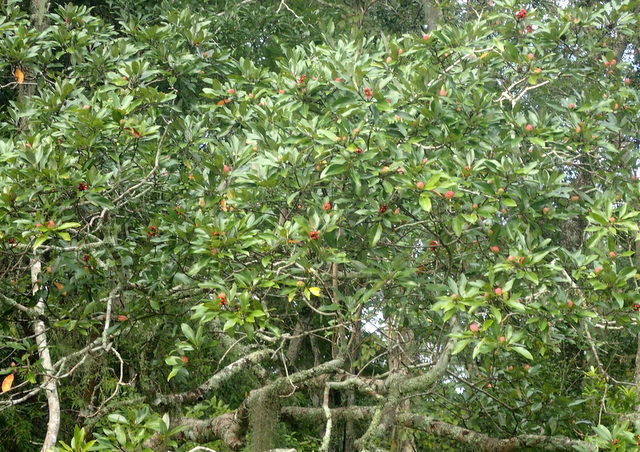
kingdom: Plantae
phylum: Tracheophyta
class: Magnoliopsida
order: Magnoliales
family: Magnoliaceae
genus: Magnolia
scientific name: Magnolia virginiana
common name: Swamp bay
